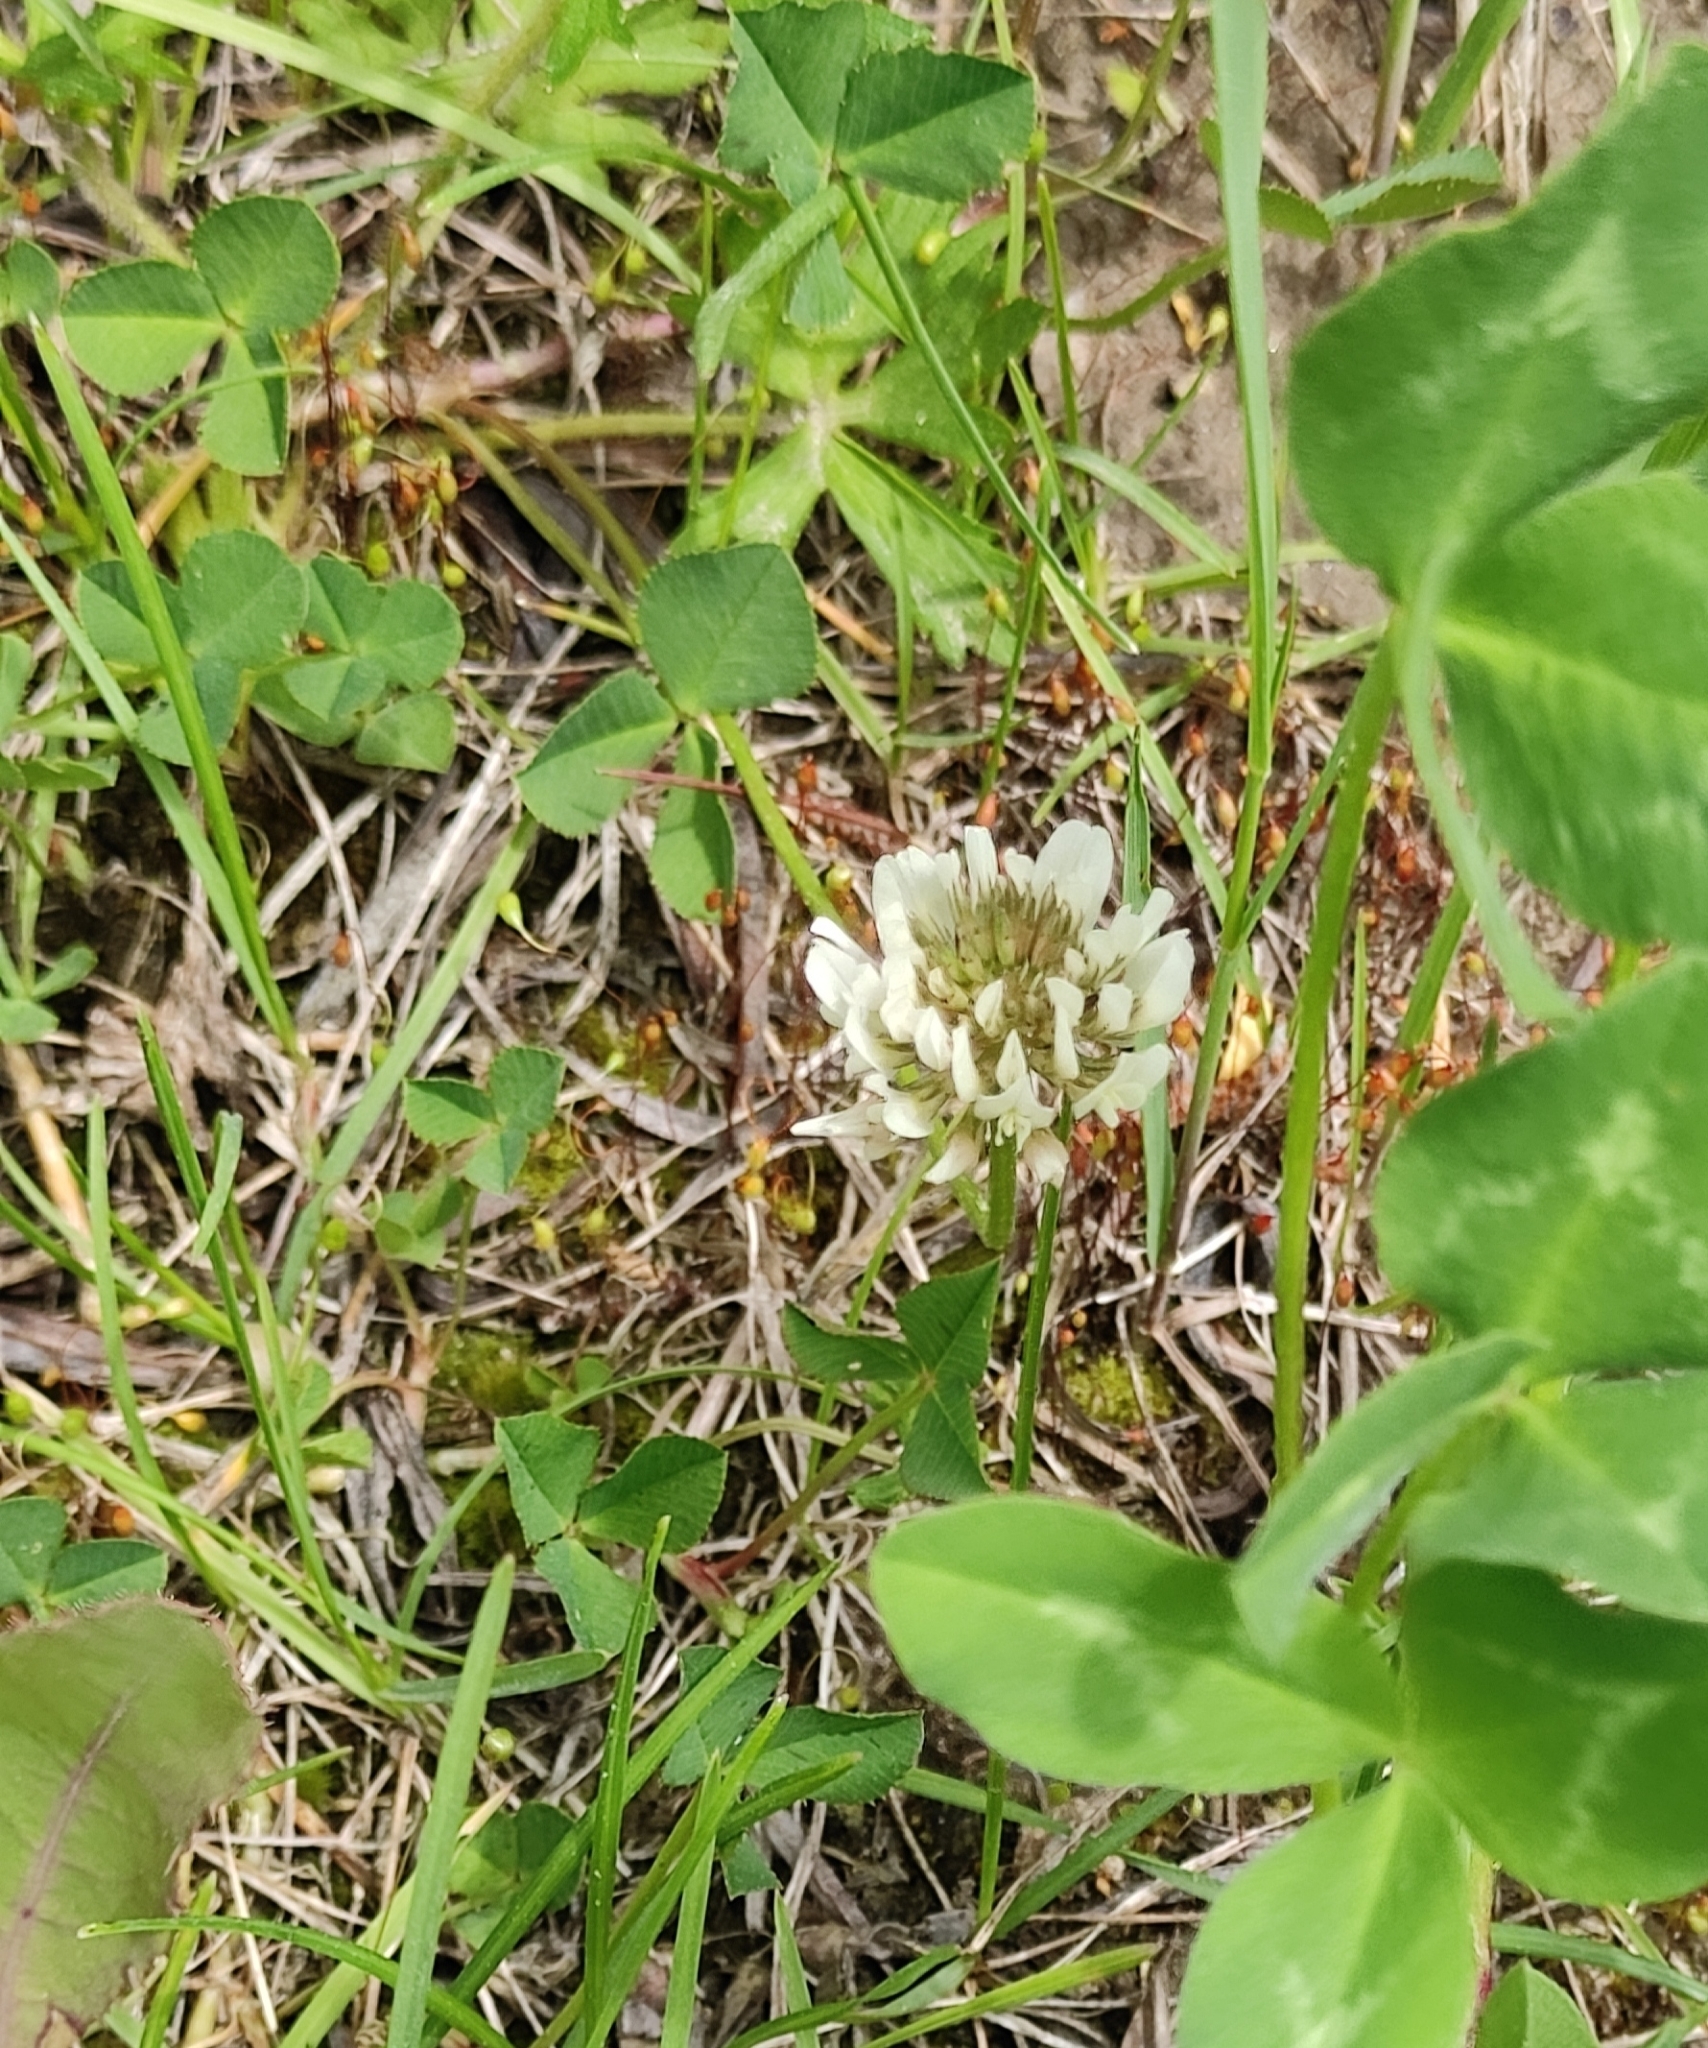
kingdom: Plantae
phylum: Tracheophyta
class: Magnoliopsida
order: Fabales
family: Fabaceae
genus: Trifolium
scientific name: Trifolium repens
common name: White clover
